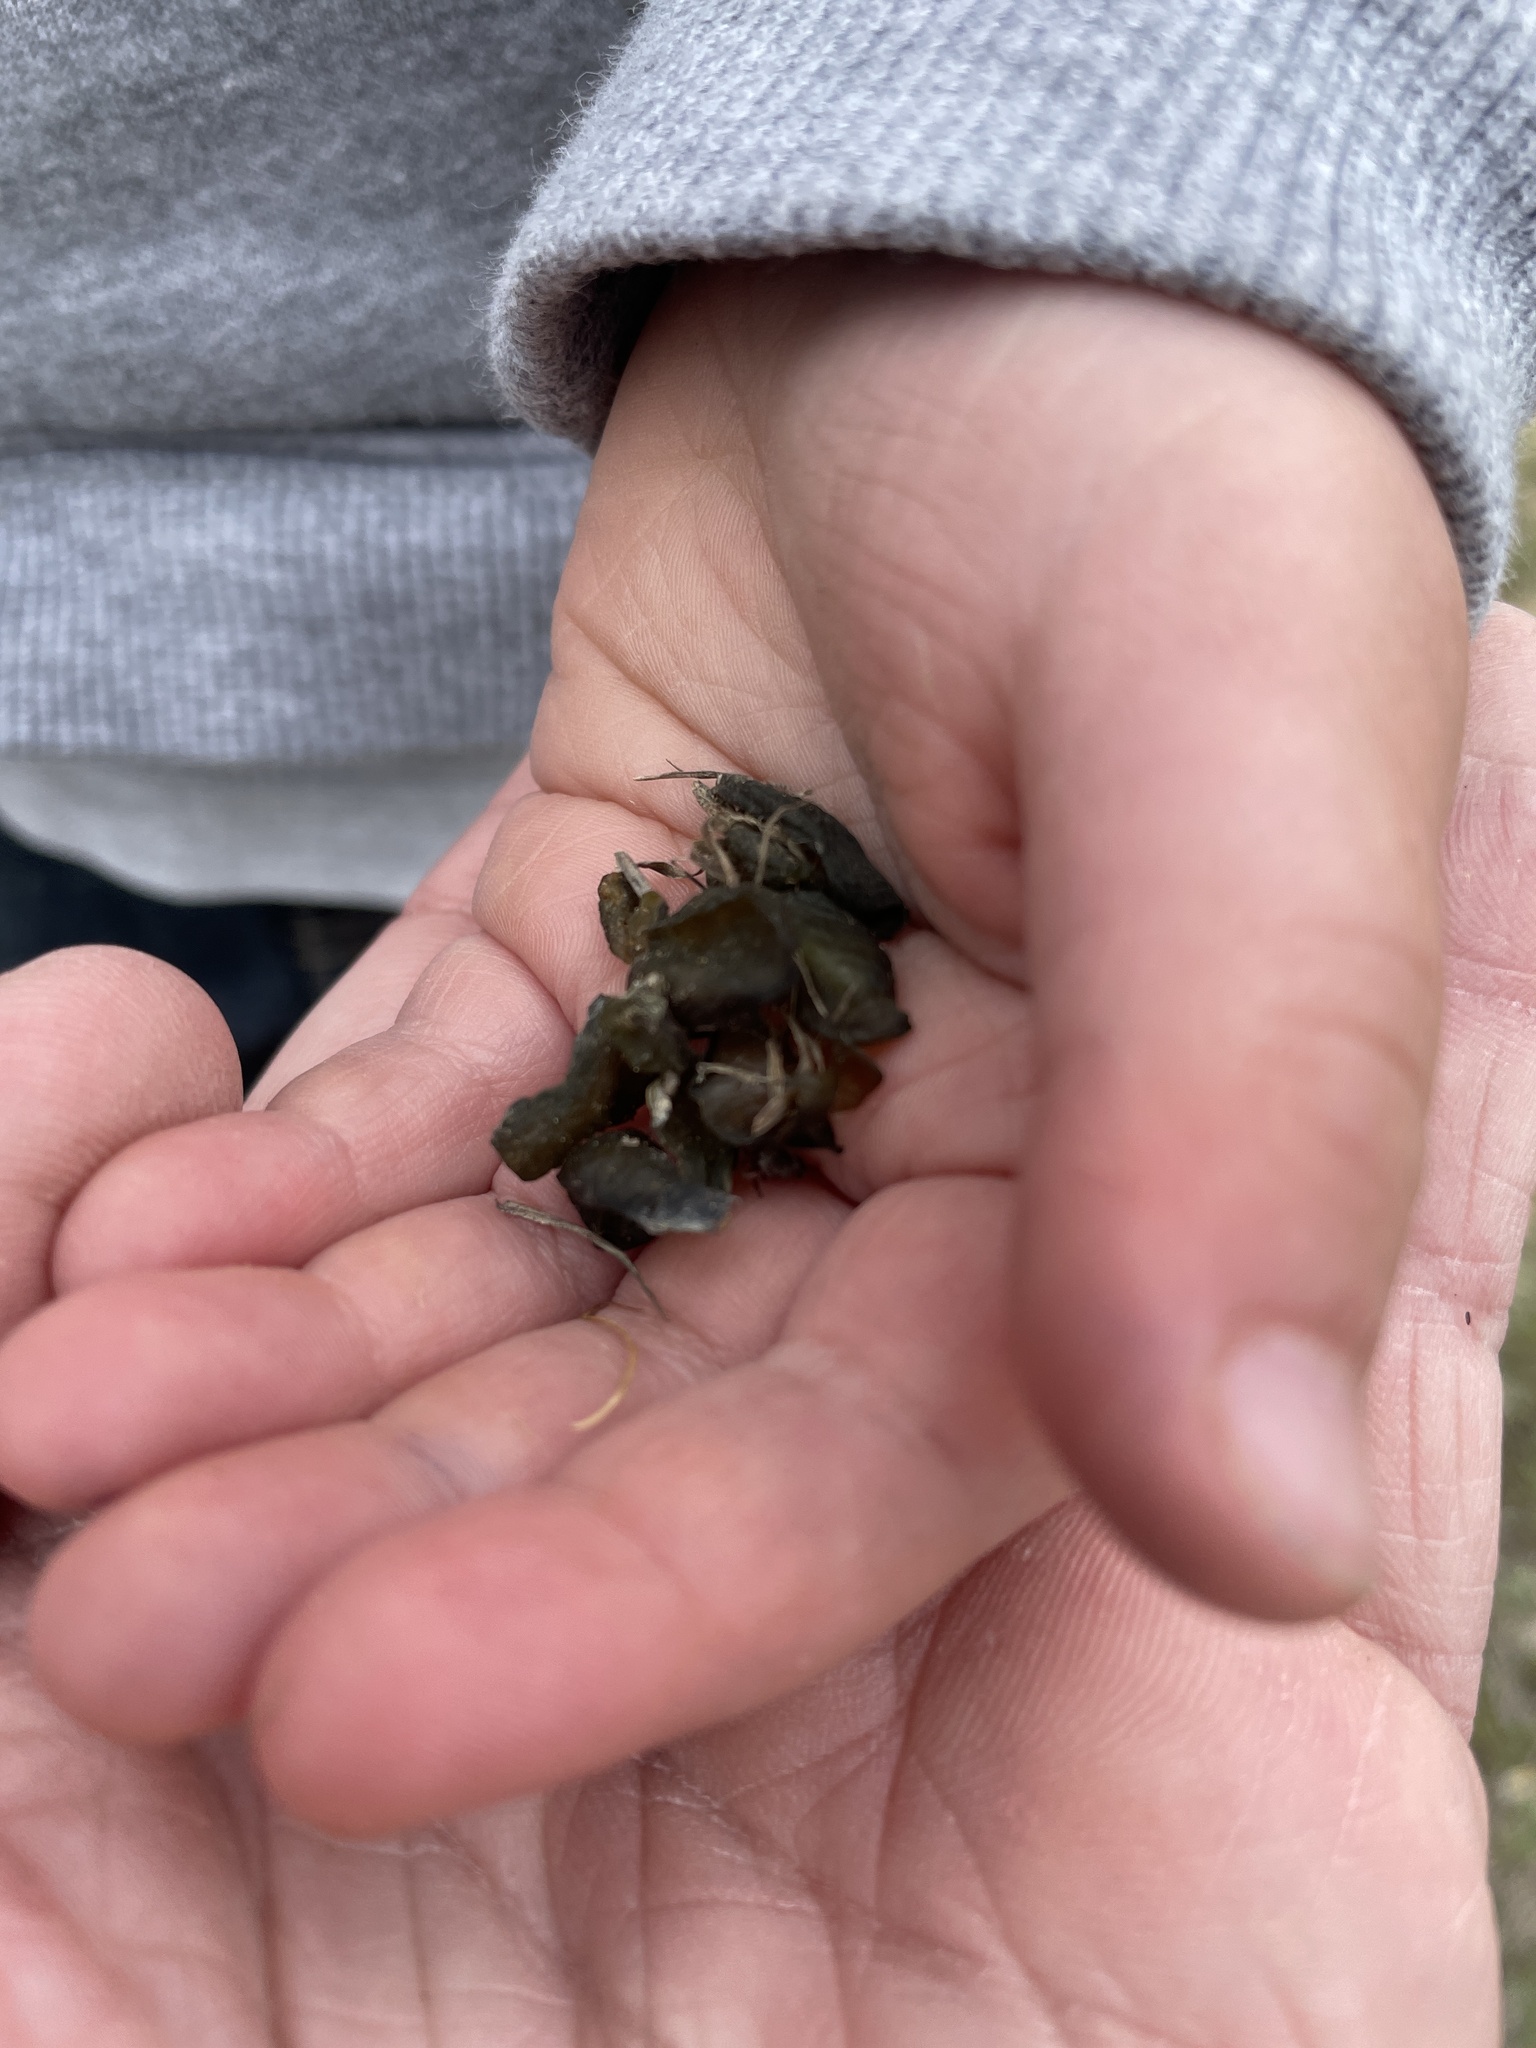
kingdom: Bacteria
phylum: Cyanobacteria
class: Cyanobacteriia
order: Cyanobacteriales
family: Nostocaceae
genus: Nostoc
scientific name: Nostoc commune
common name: Star jelly
